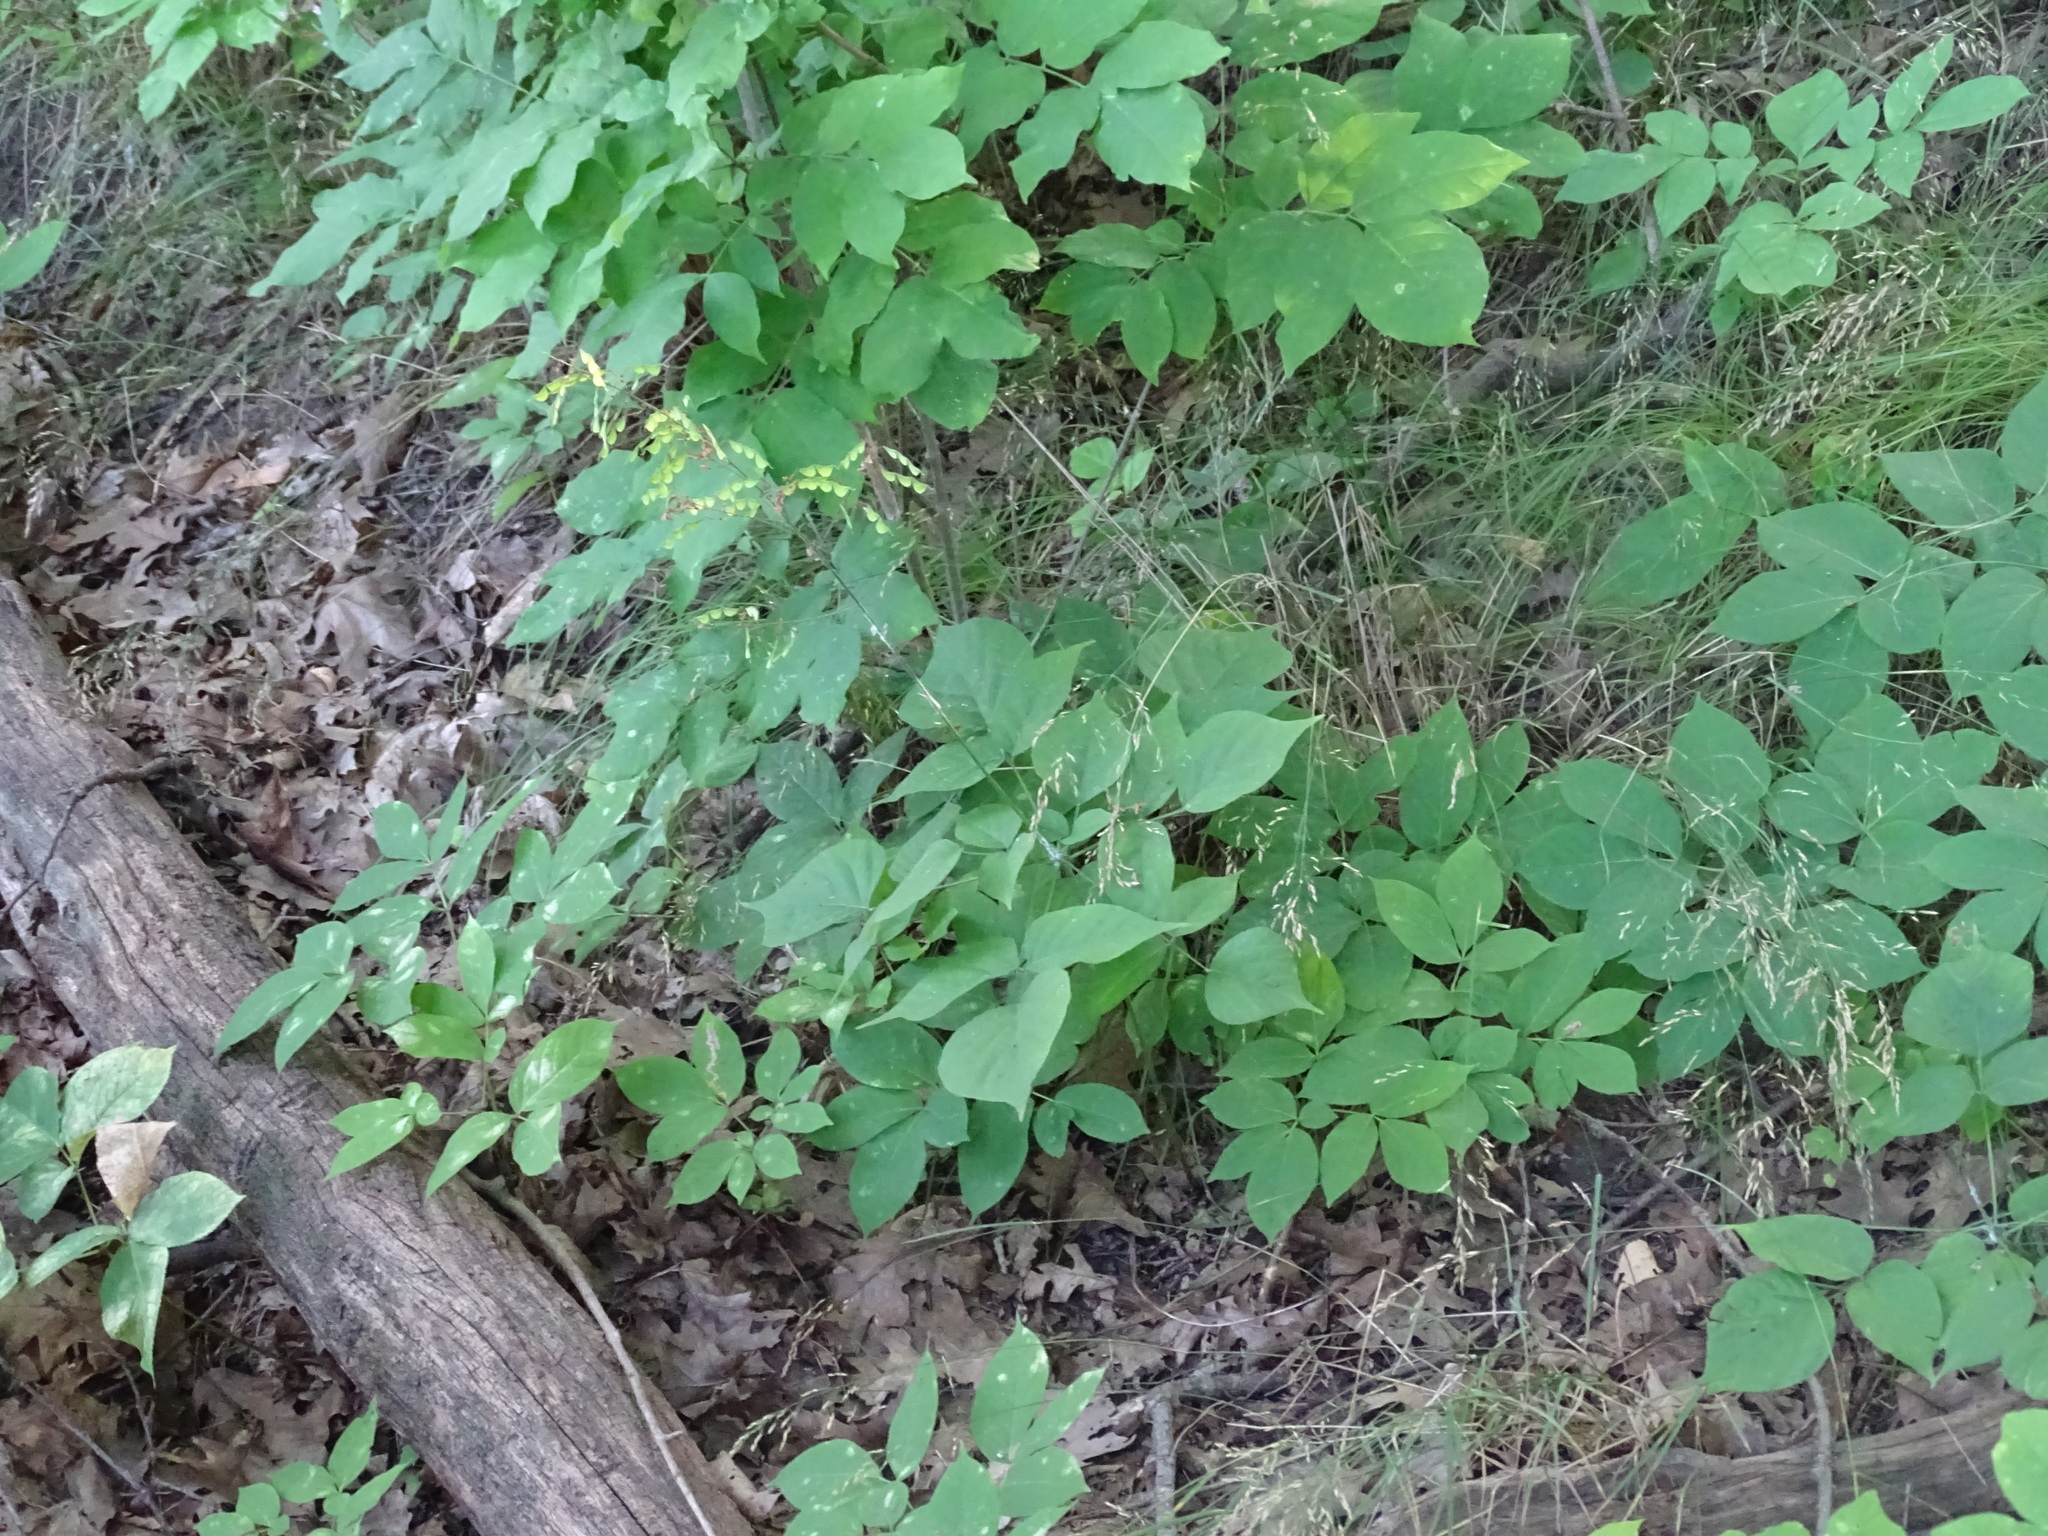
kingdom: Plantae
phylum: Tracheophyta
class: Magnoliopsida
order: Fabales
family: Fabaceae
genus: Hylodesmum
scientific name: Hylodesmum glutinosum
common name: Clustered-leaved tick-trefoil
